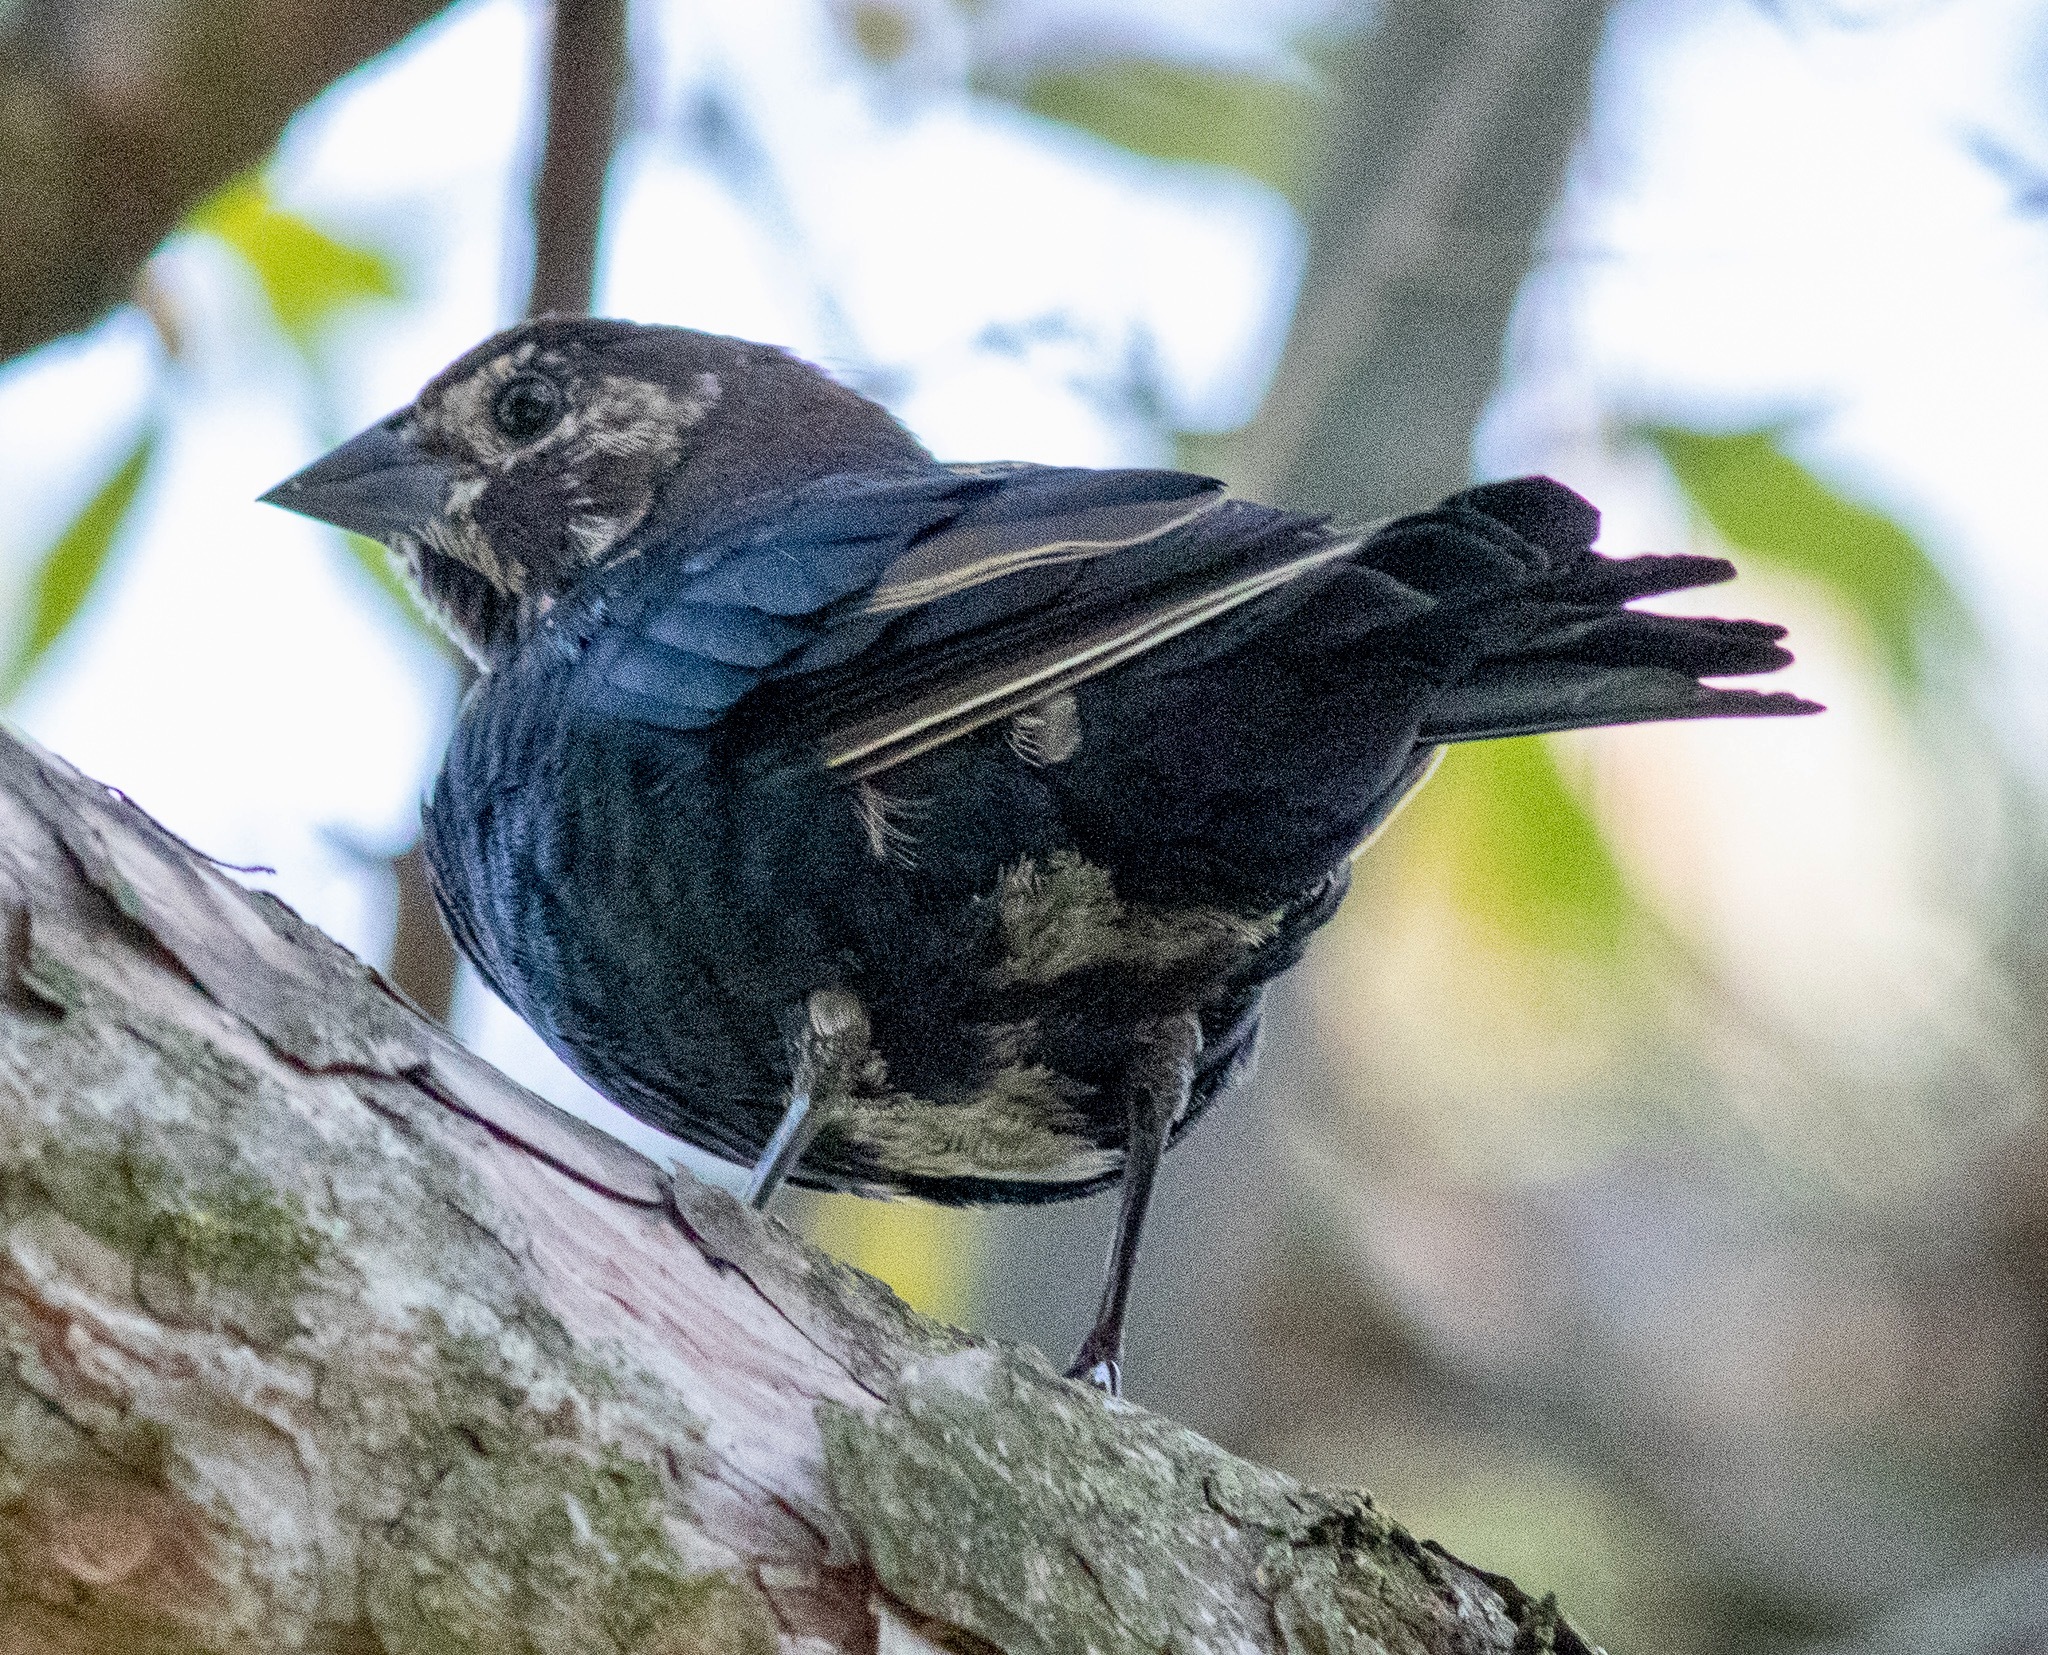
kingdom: Animalia
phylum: Chordata
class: Aves
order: Passeriformes
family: Icteridae
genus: Molothrus
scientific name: Molothrus ater
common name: Brown-headed cowbird
